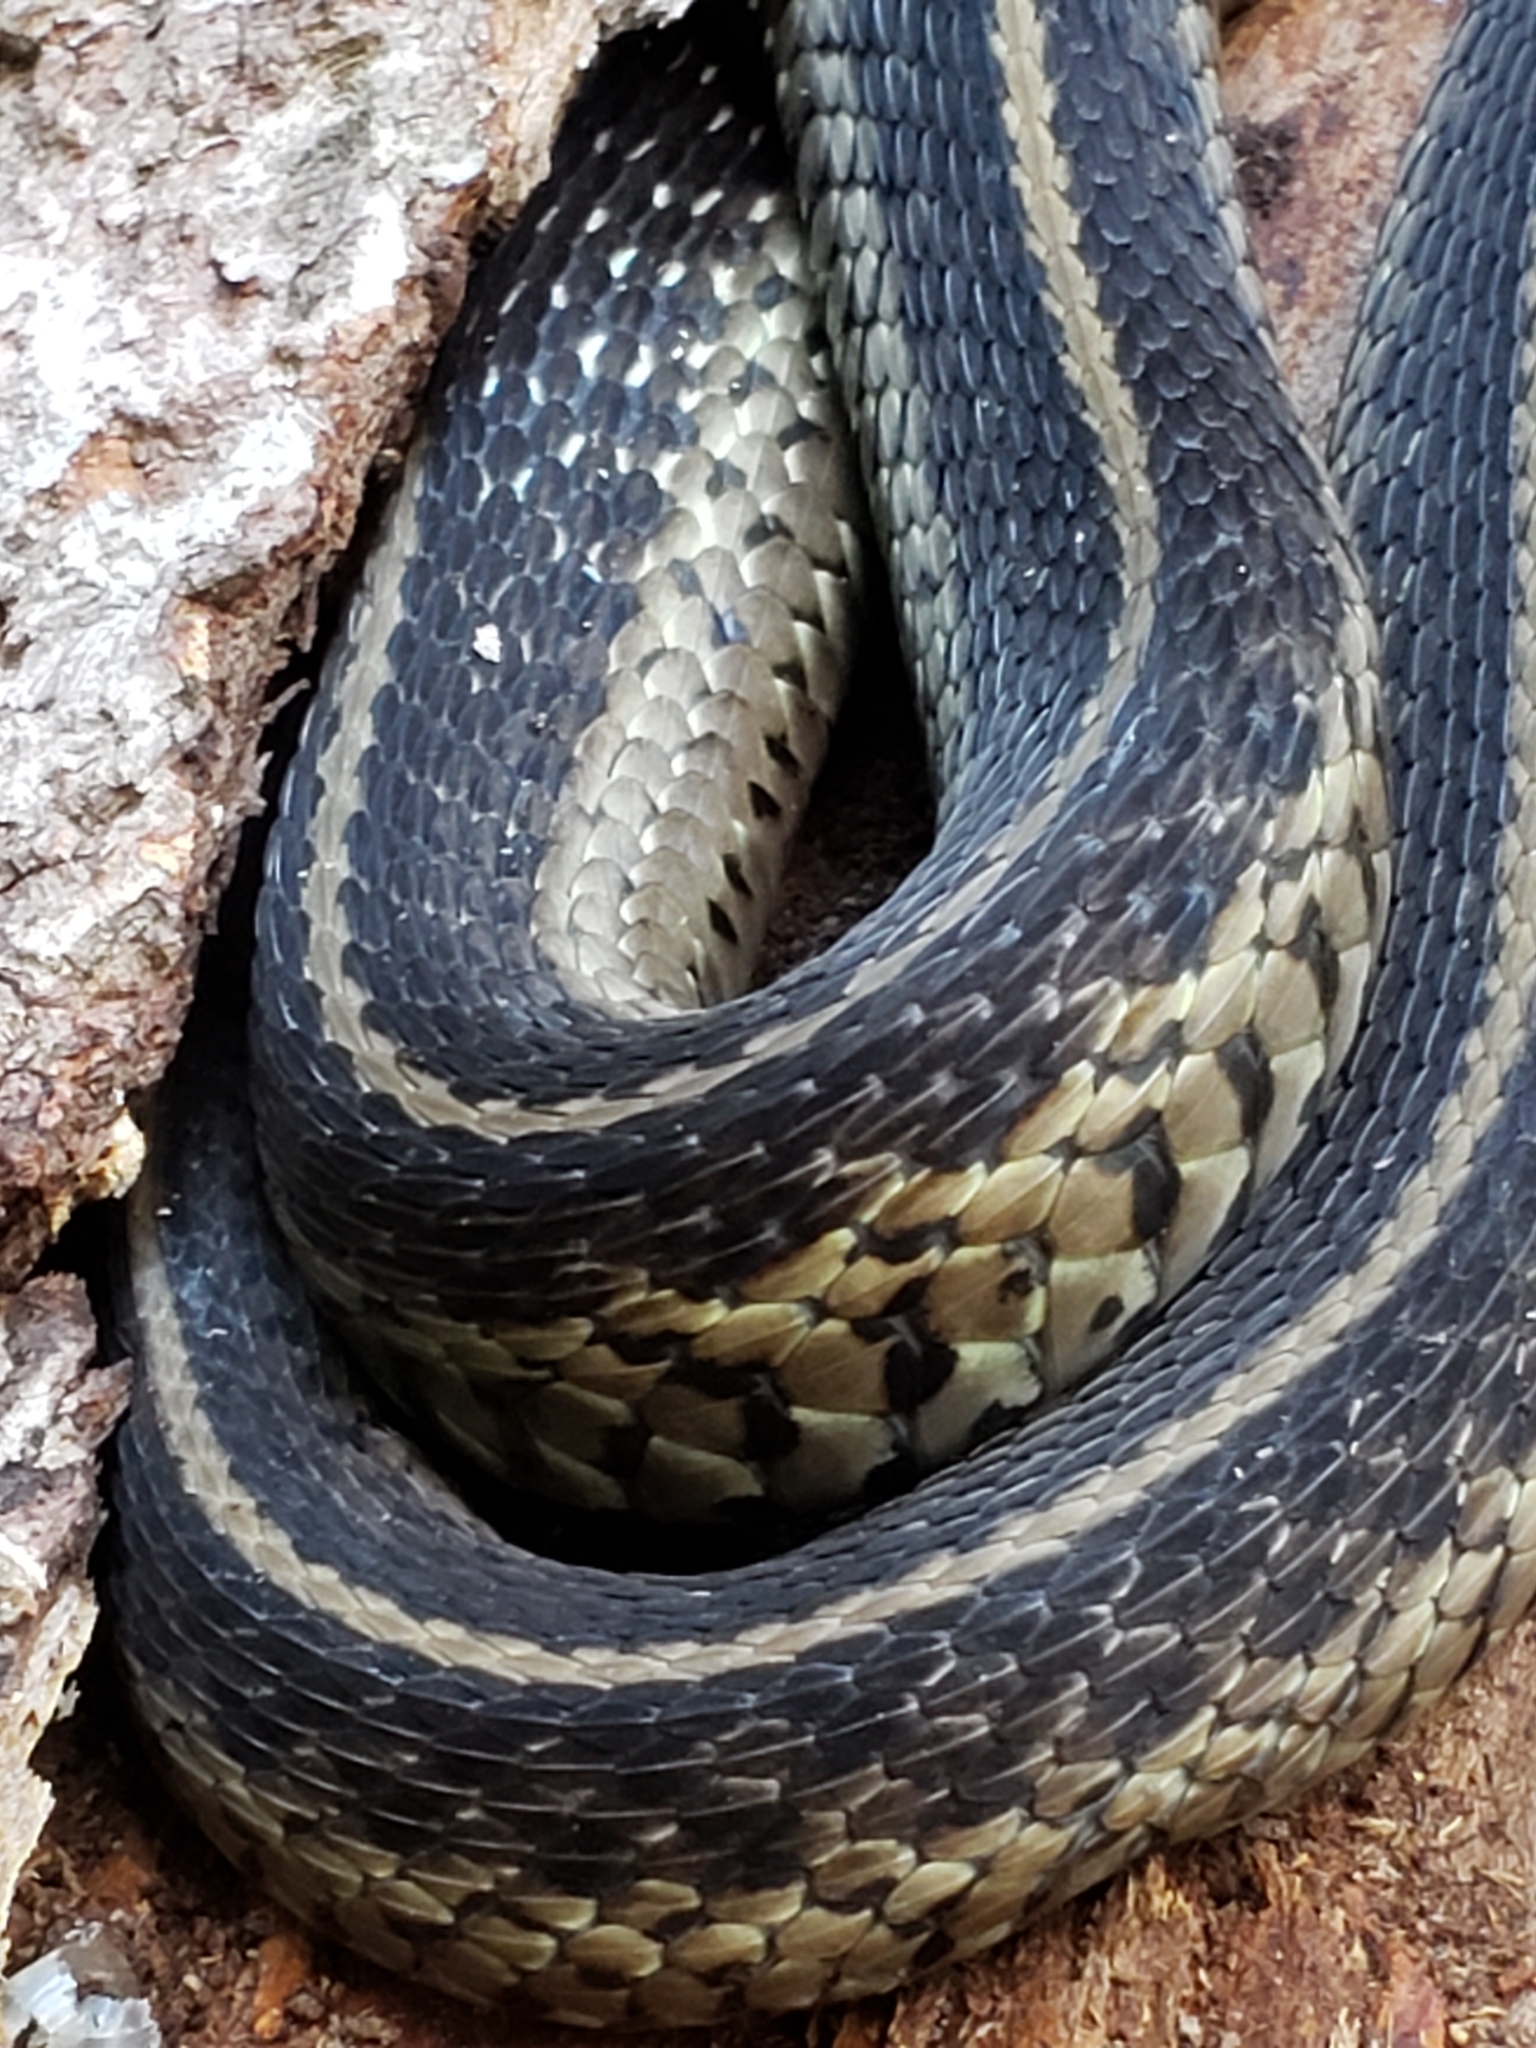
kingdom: Animalia
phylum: Chordata
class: Squamata
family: Colubridae
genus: Thamnophis
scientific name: Thamnophis sirtalis
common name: Common garter snake
